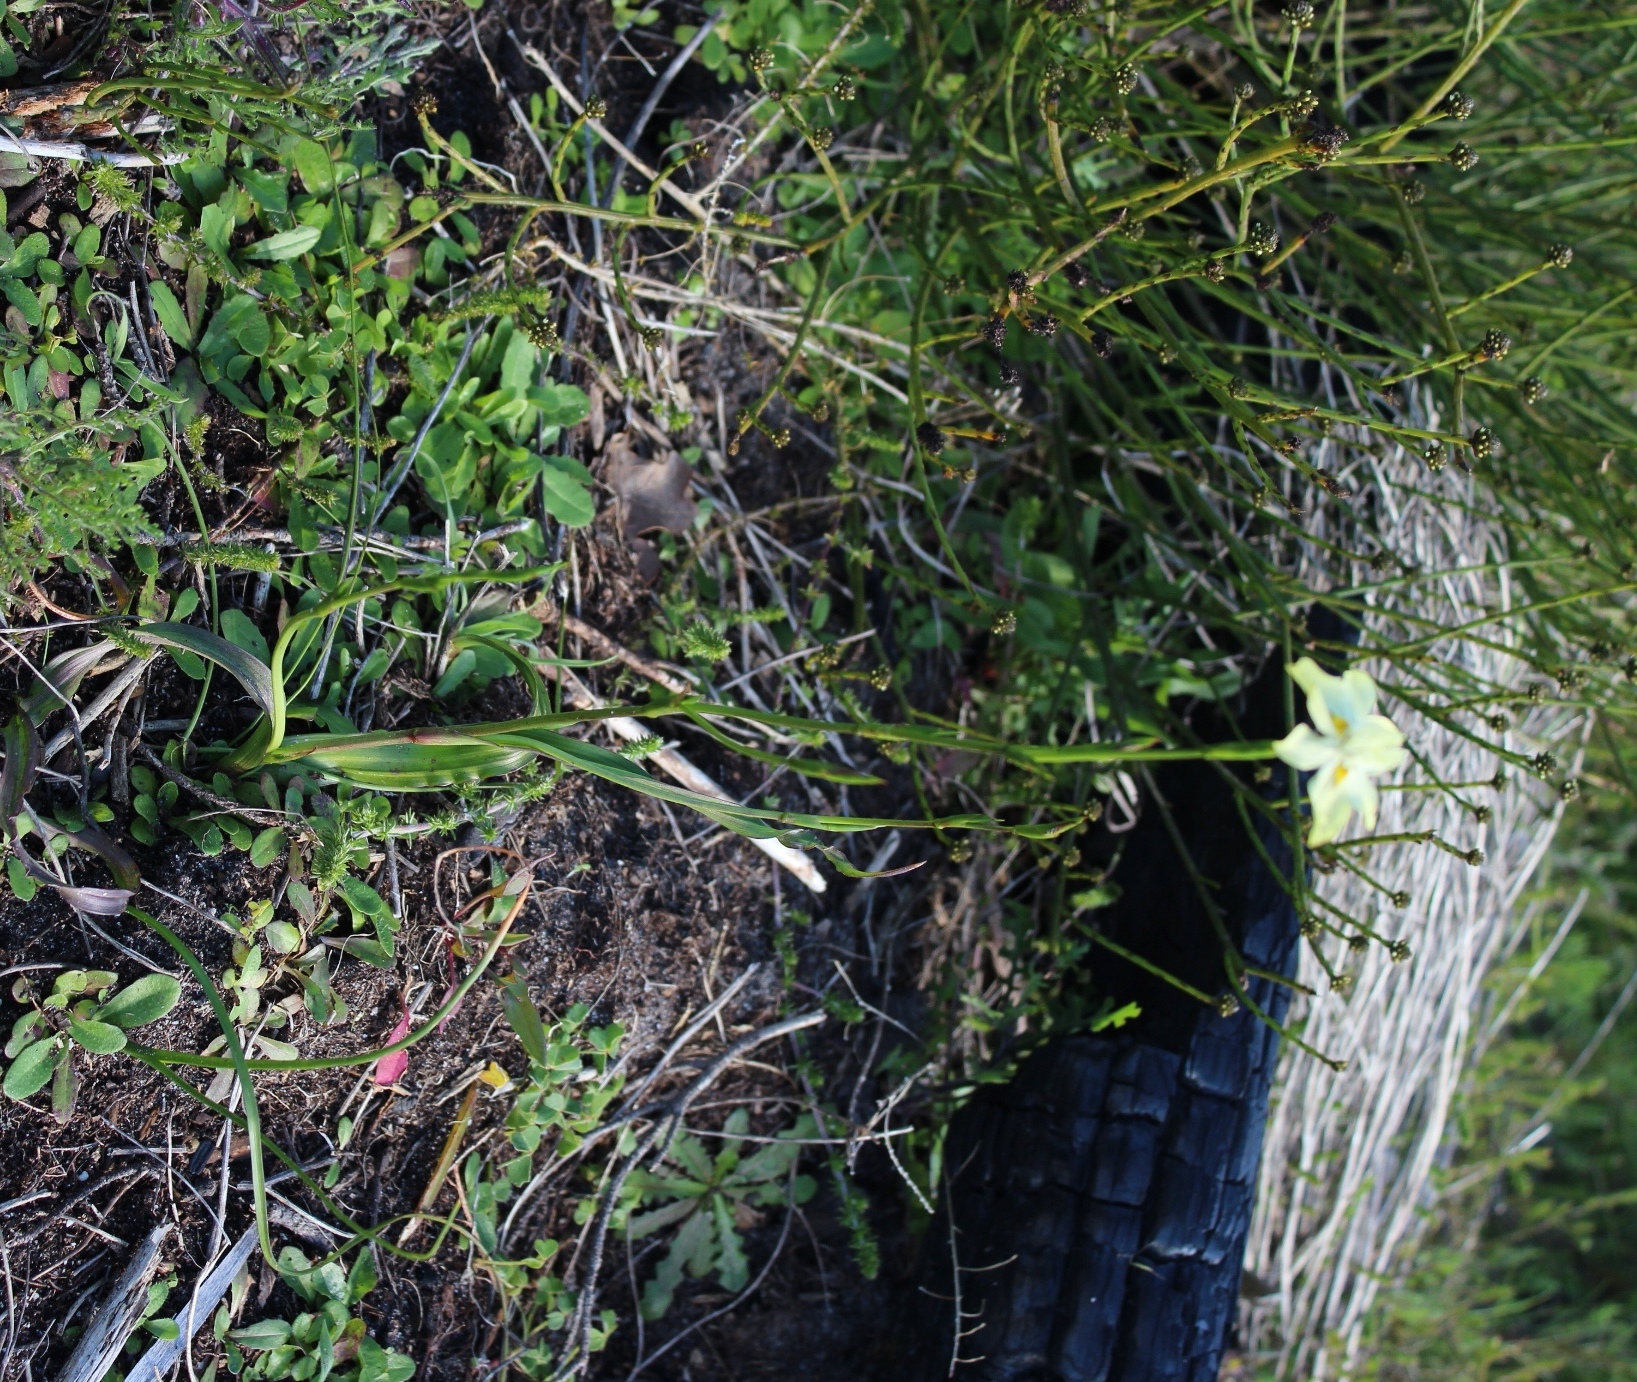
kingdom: Plantae
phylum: Tracheophyta
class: Liliopsida
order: Asparagales
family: Iridaceae
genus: Moraea
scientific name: Moraea gawleri
